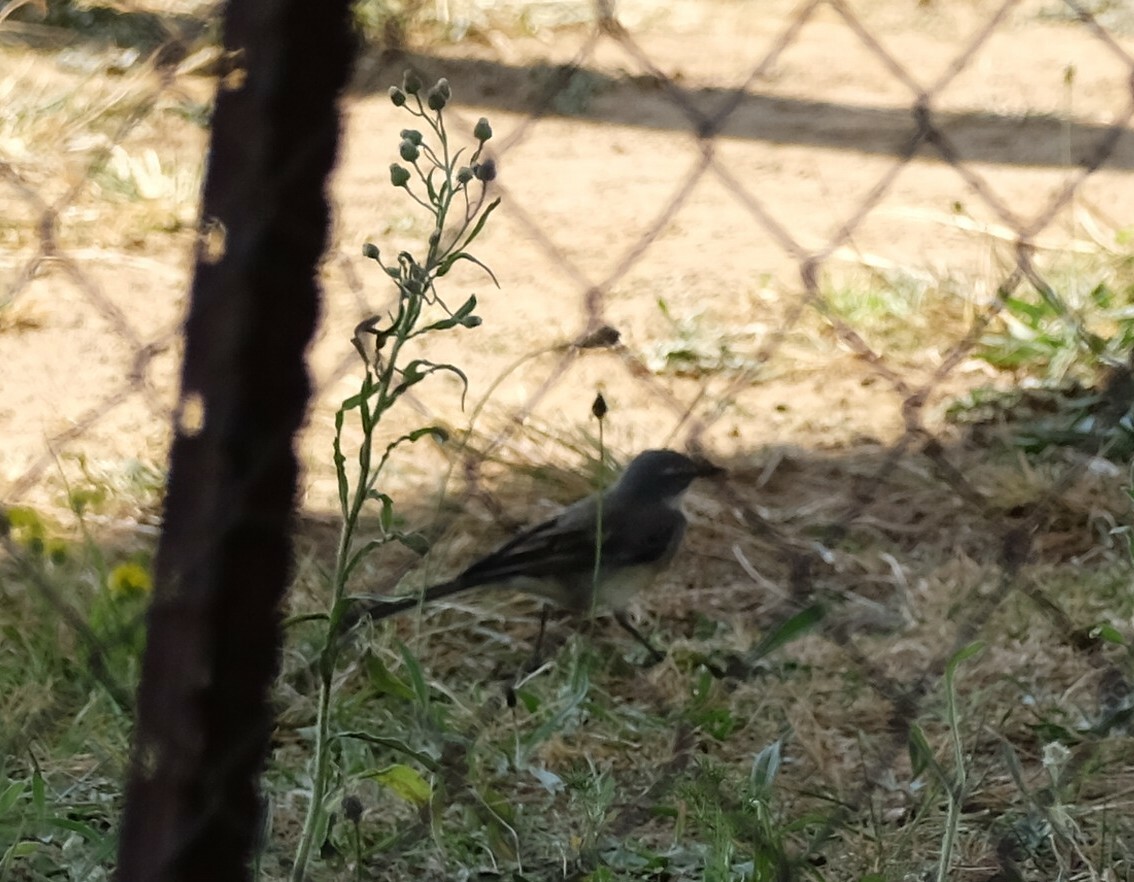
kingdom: Animalia
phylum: Chordata
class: Aves
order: Passeriformes
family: Motacillidae
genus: Motacilla
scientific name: Motacilla capensis
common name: Cape wagtail
